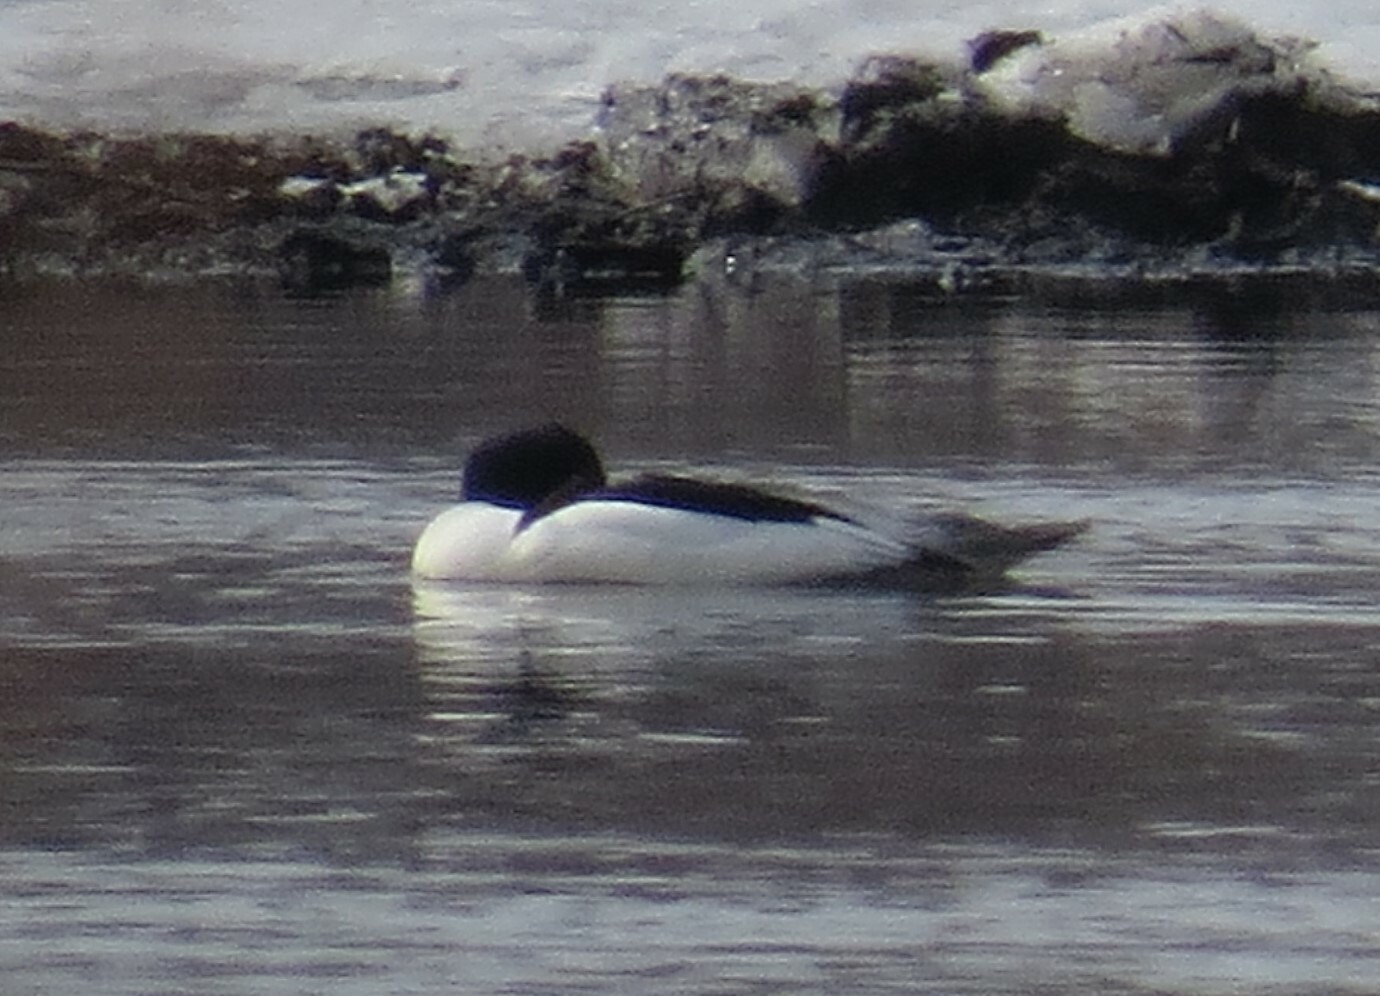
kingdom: Animalia
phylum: Chordata
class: Aves
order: Anseriformes
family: Anatidae
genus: Mergus
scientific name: Mergus merganser
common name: Common merganser
